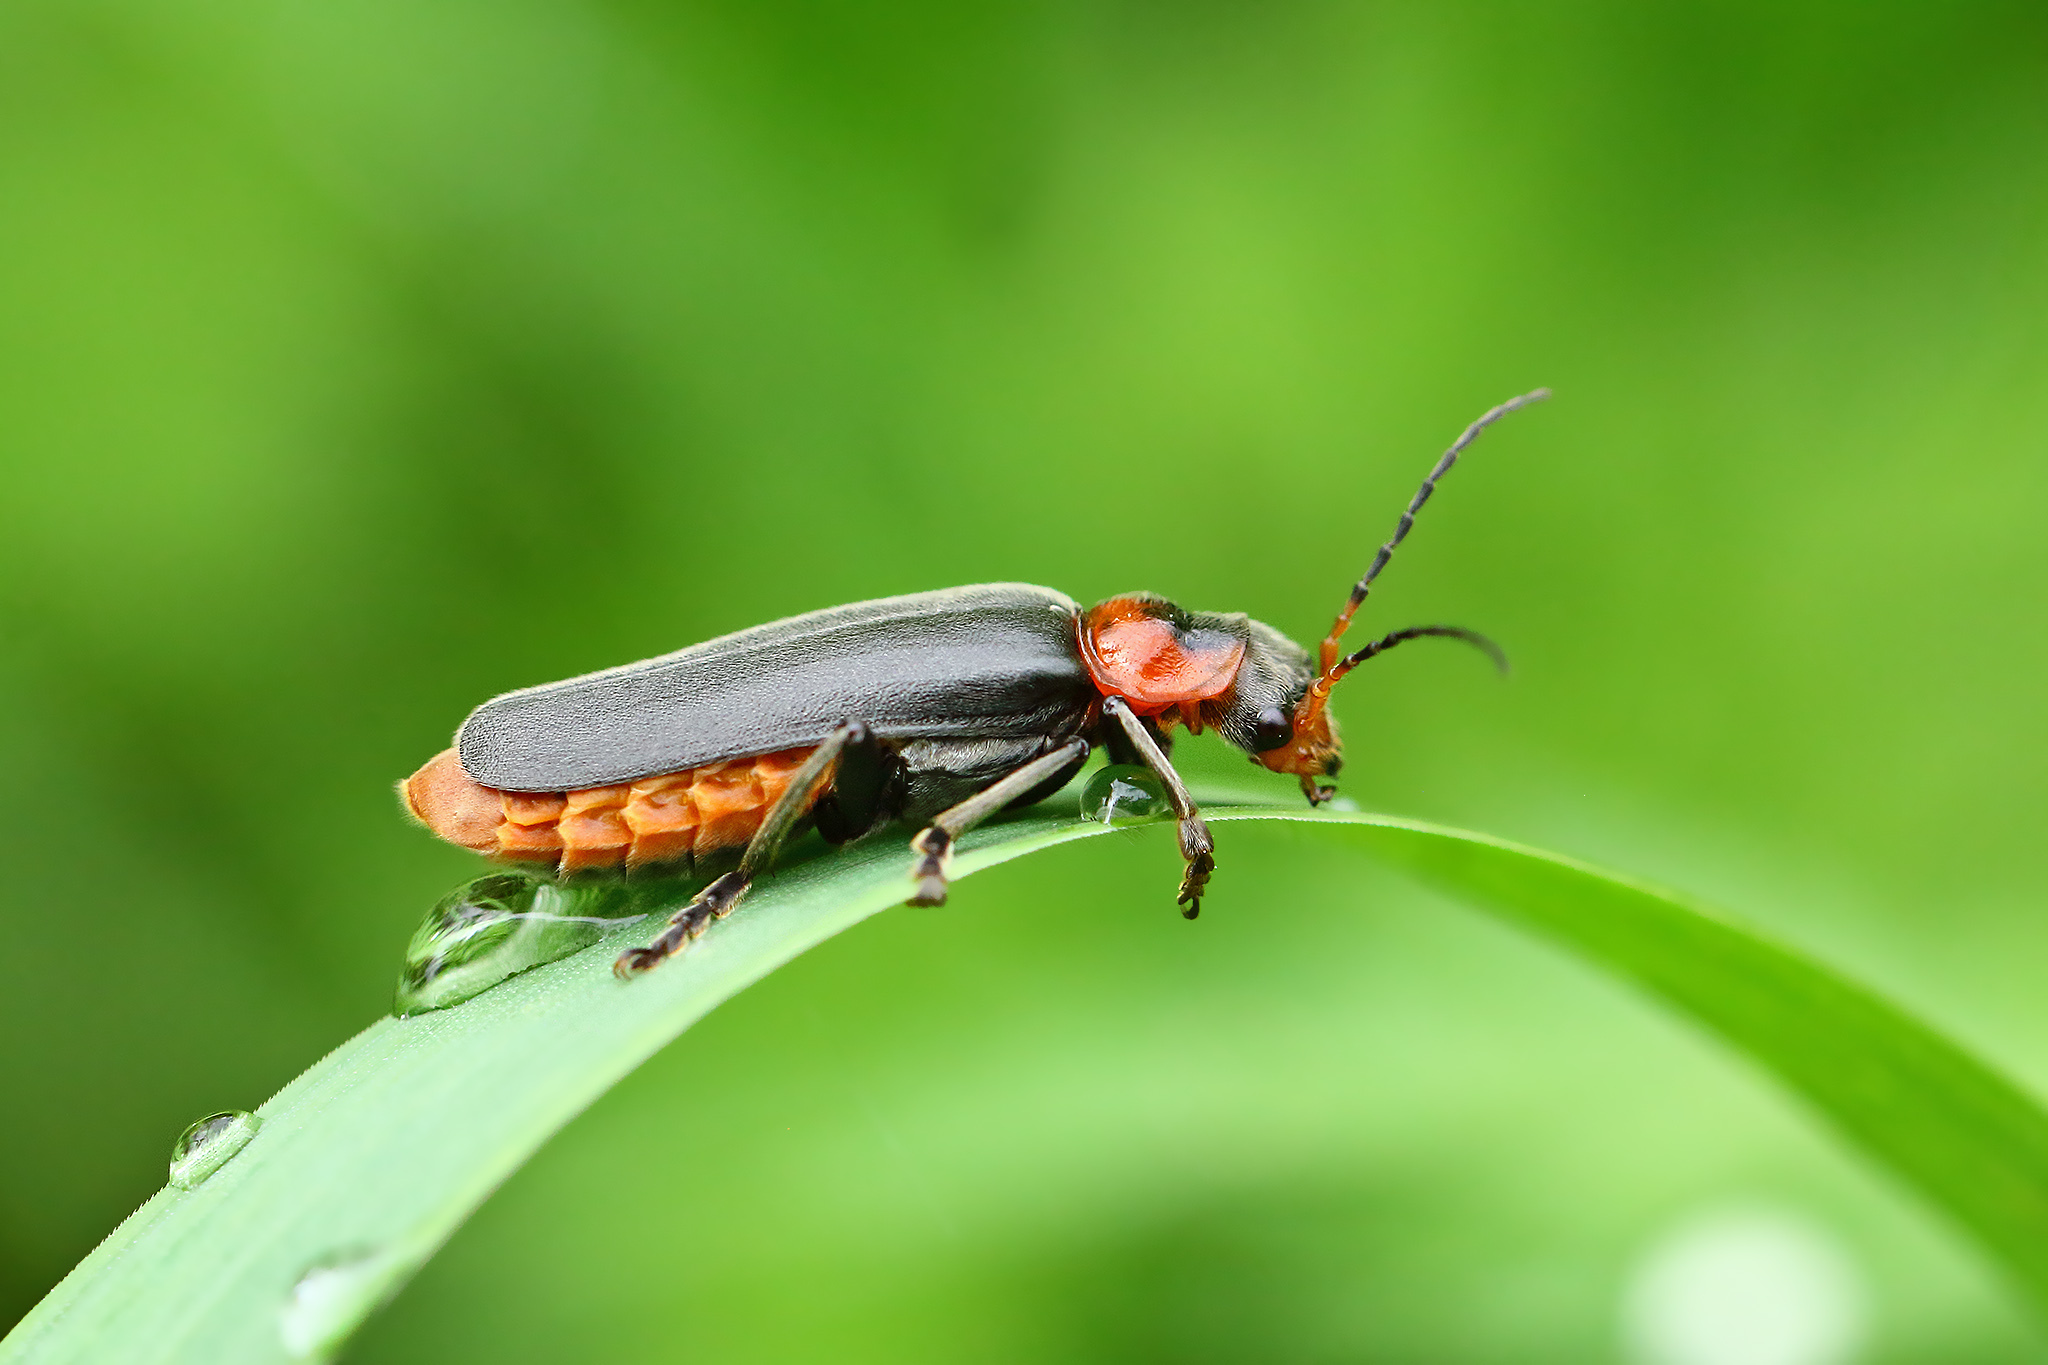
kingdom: Animalia
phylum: Arthropoda
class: Insecta
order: Coleoptera
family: Cantharidae
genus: Cantharis
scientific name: Cantharis fusca
